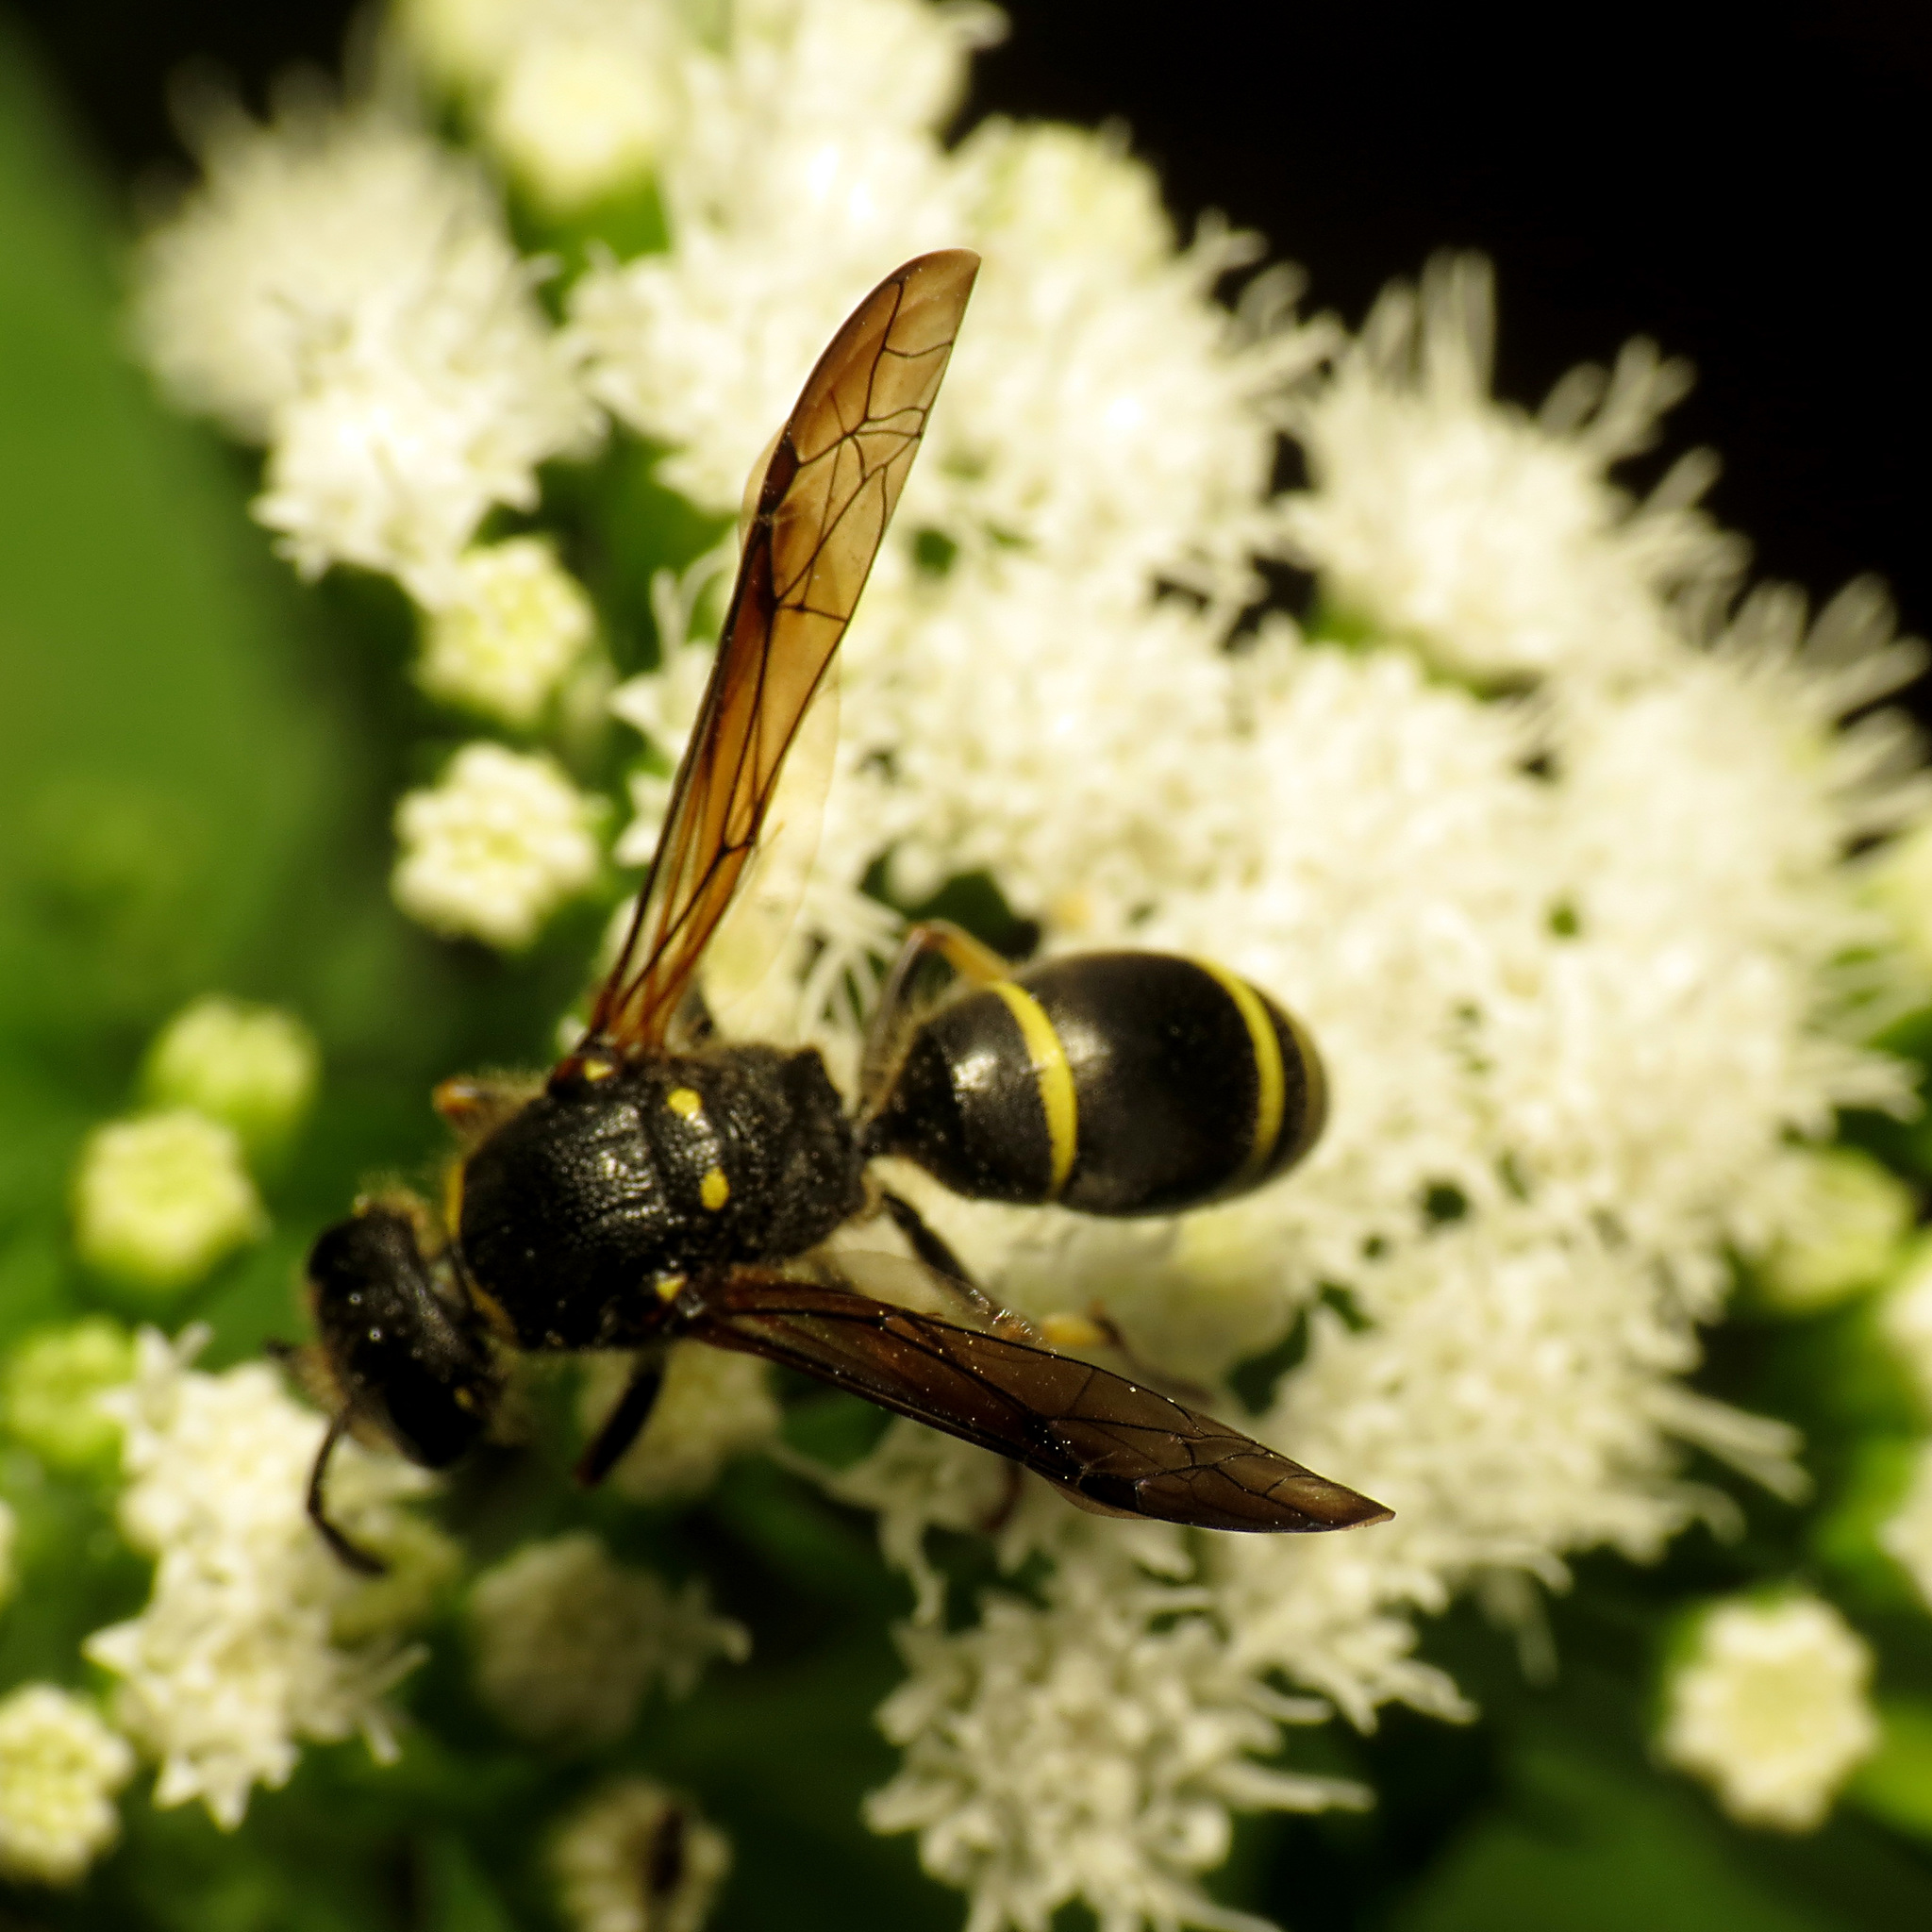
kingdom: Animalia
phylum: Arthropoda
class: Insecta
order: Hymenoptera
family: Vespidae
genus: Ancistrocerus
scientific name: Ancistrocerus
